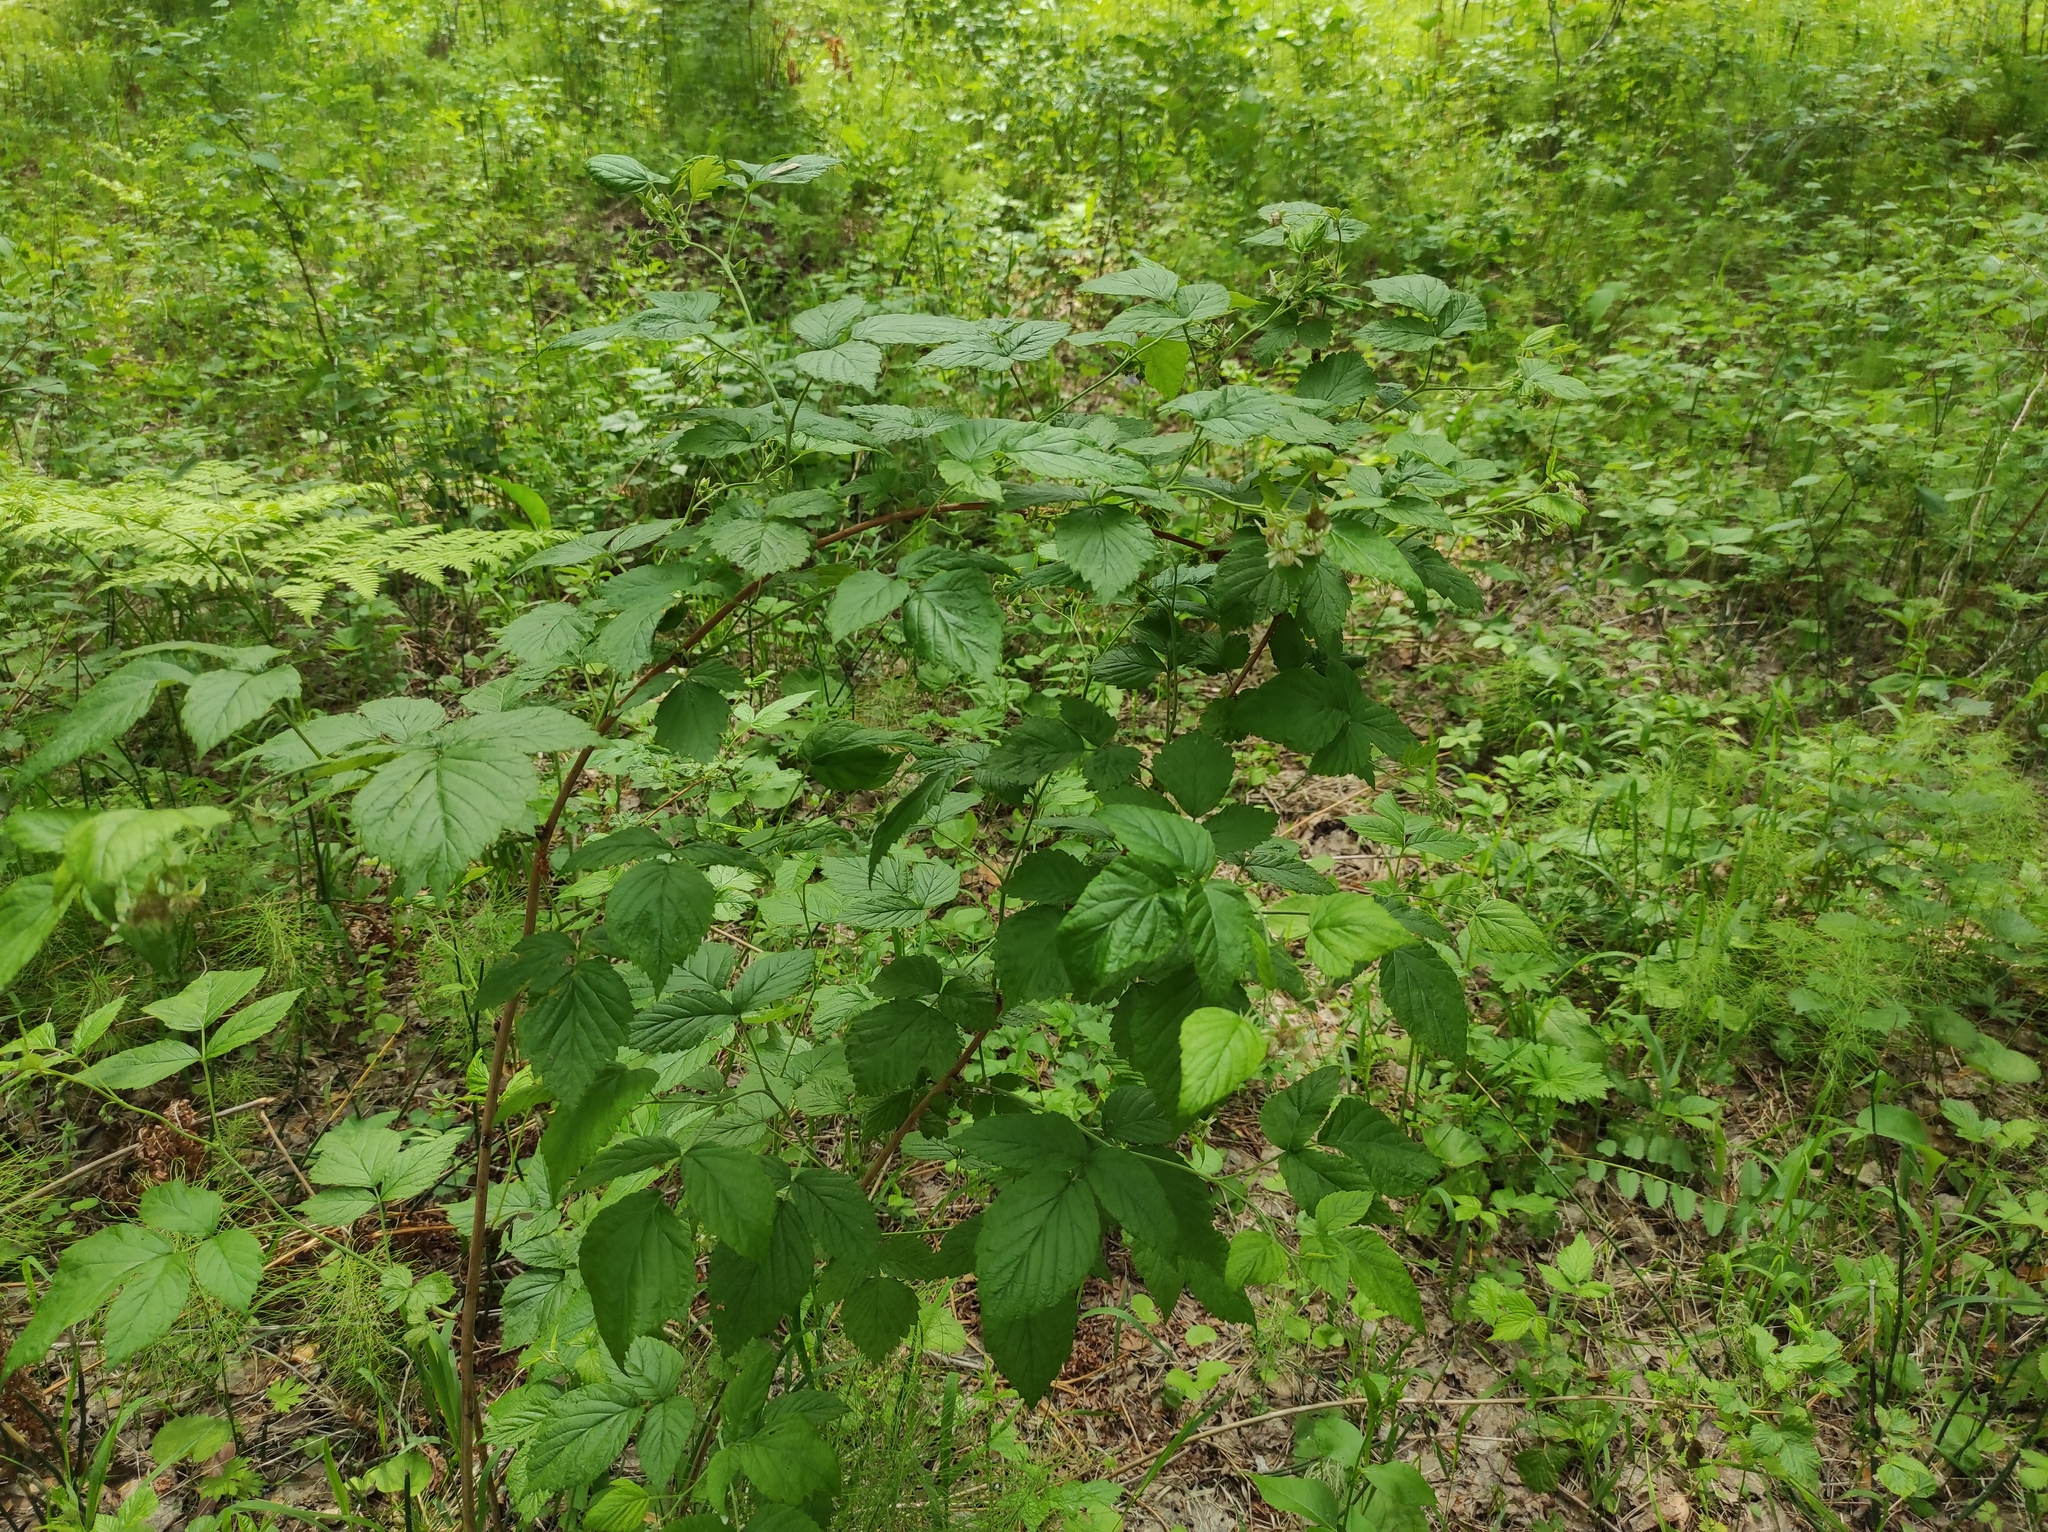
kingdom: Plantae
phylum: Tracheophyta
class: Magnoliopsida
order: Rosales
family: Rosaceae
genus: Rubus
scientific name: Rubus idaeus
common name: Raspberry
